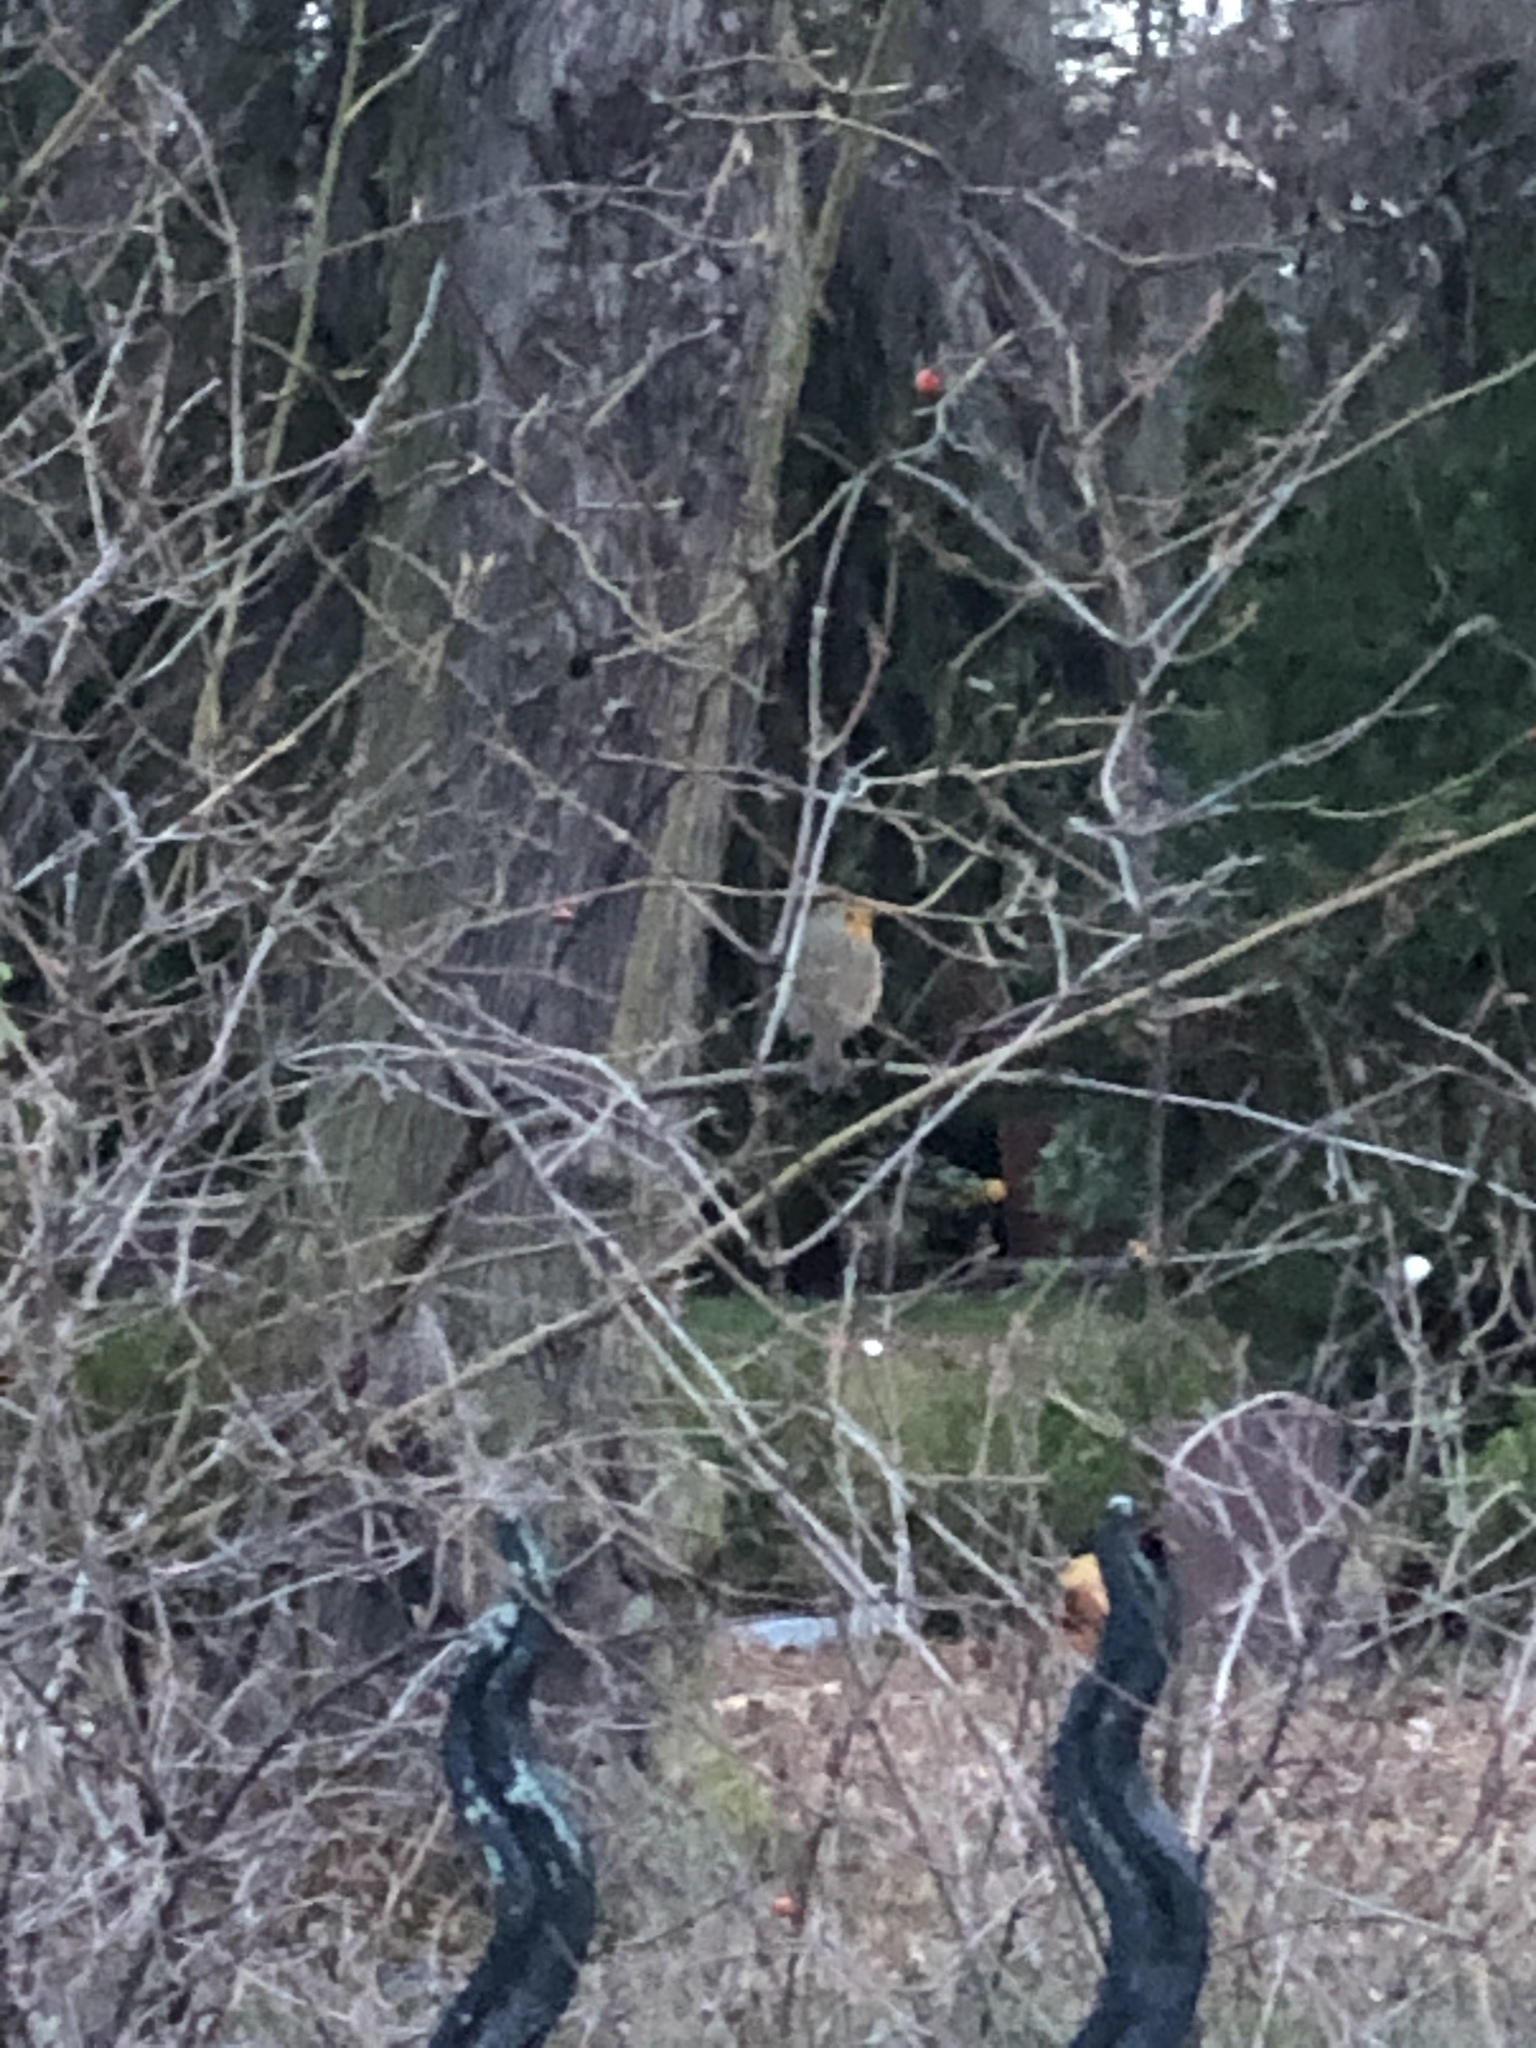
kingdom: Animalia
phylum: Chordata
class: Aves
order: Passeriformes
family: Muscicapidae
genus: Erithacus
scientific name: Erithacus rubecula
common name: European robin
